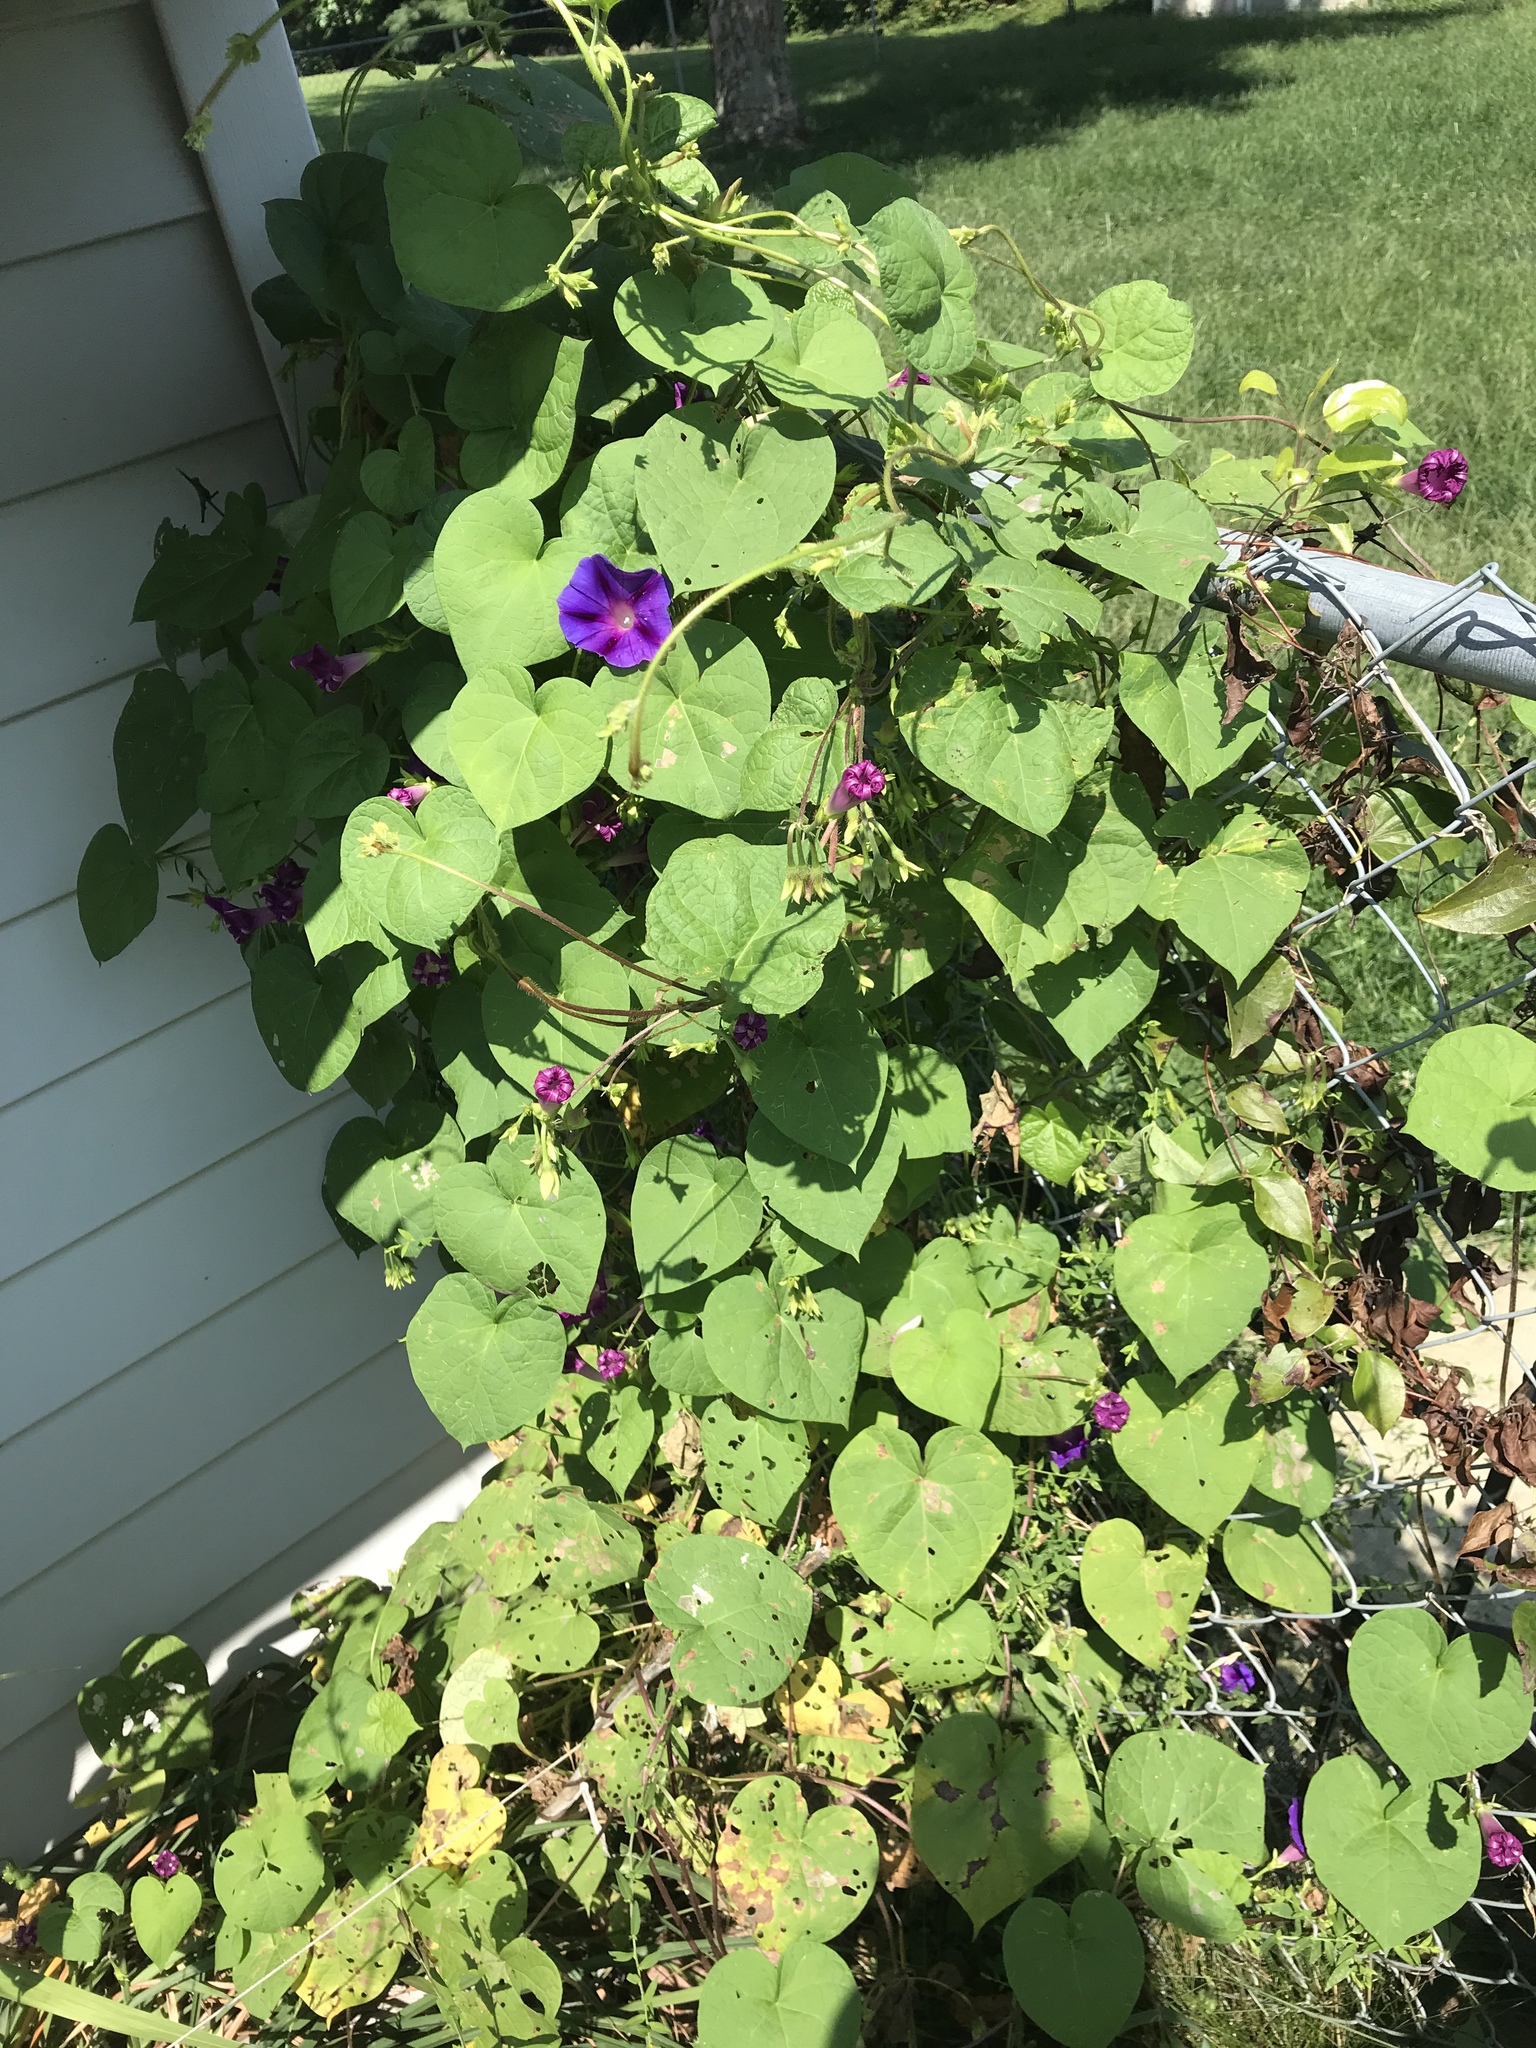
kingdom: Plantae
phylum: Tracheophyta
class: Magnoliopsida
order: Solanales
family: Convolvulaceae
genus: Ipomoea
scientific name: Ipomoea purpurea
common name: Common morning-glory
